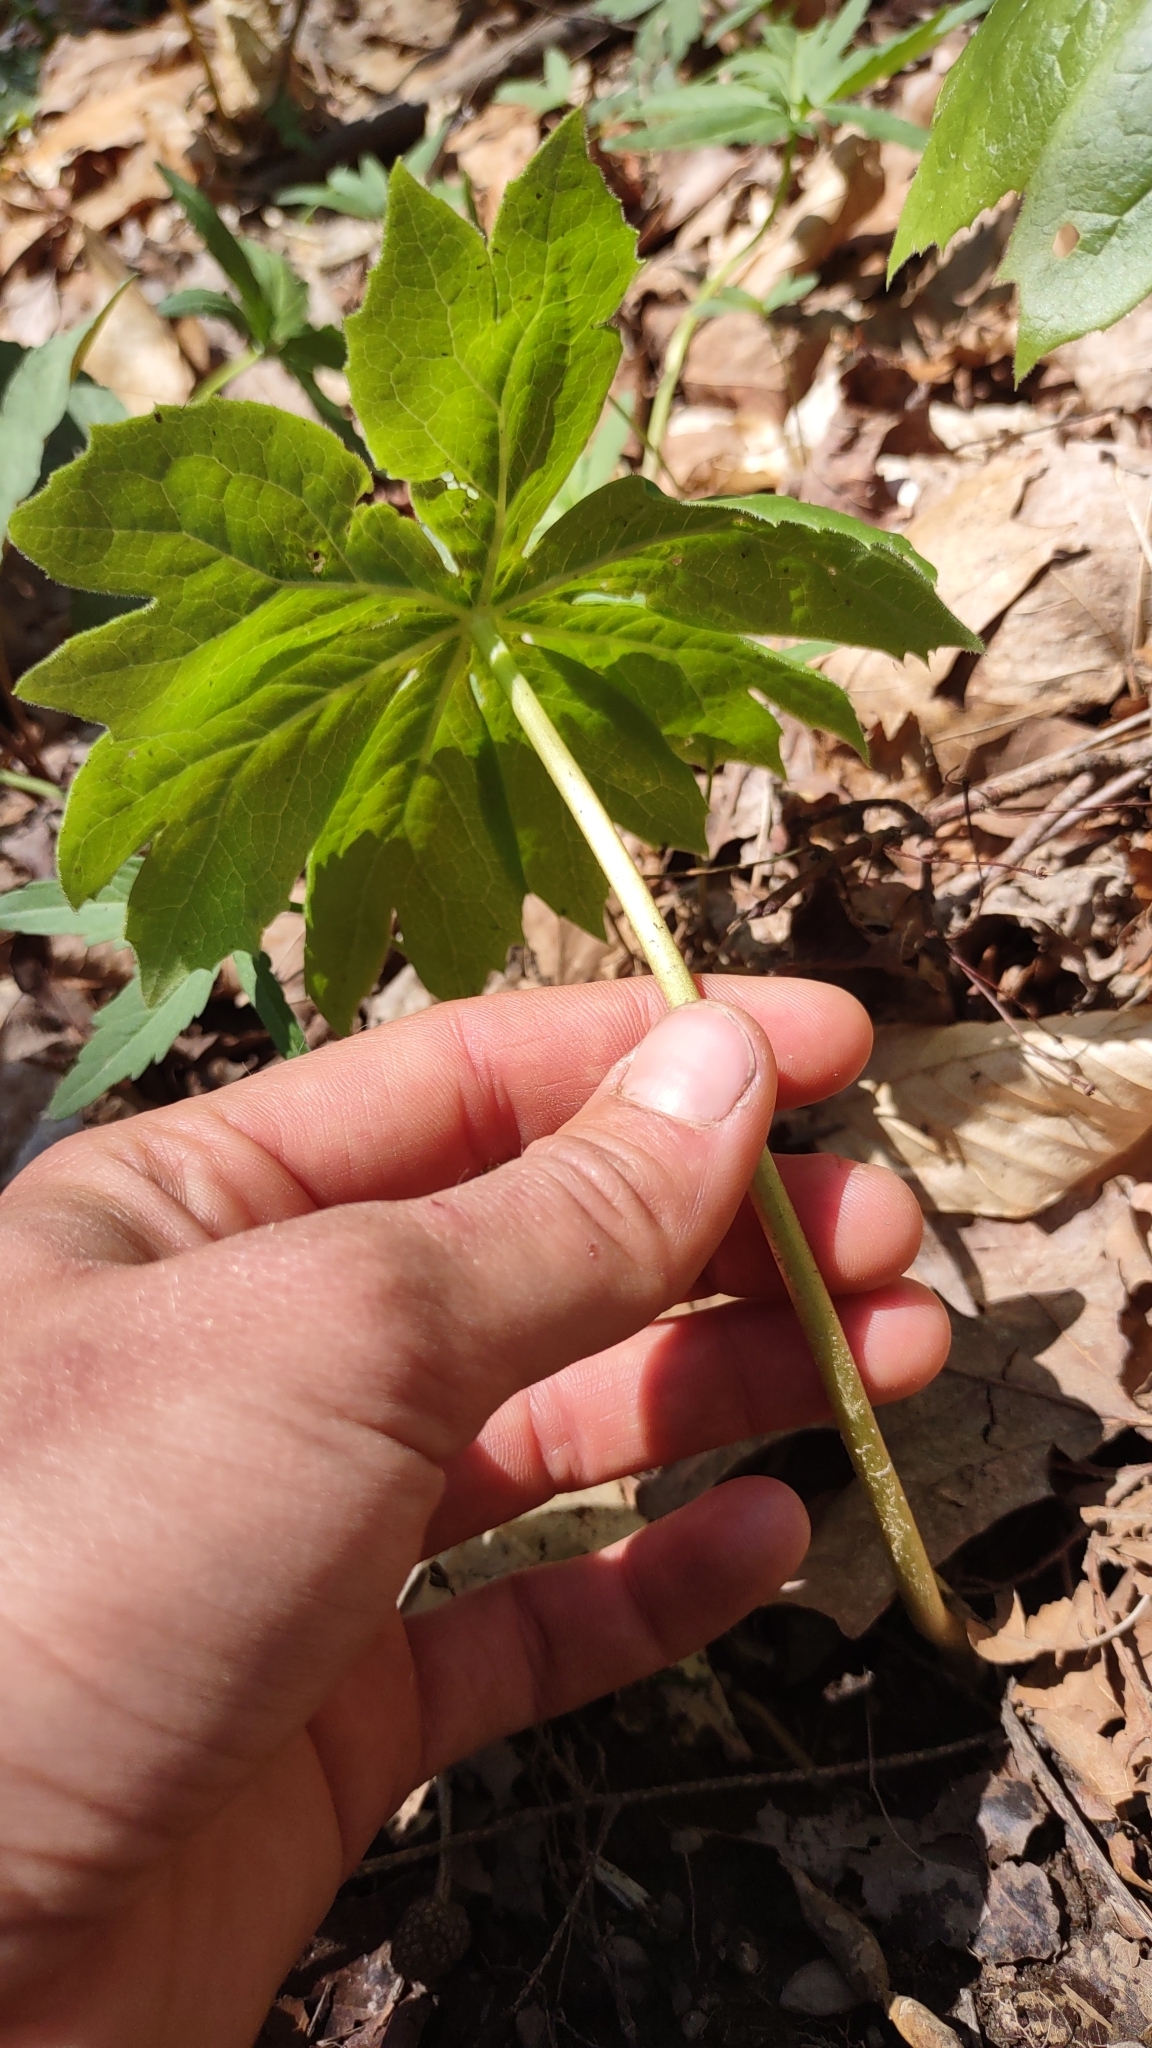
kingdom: Plantae
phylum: Tracheophyta
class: Magnoliopsida
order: Ranunculales
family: Berberidaceae
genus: Podophyllum
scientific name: Podophyllum peltatum
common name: Wild mandrake
